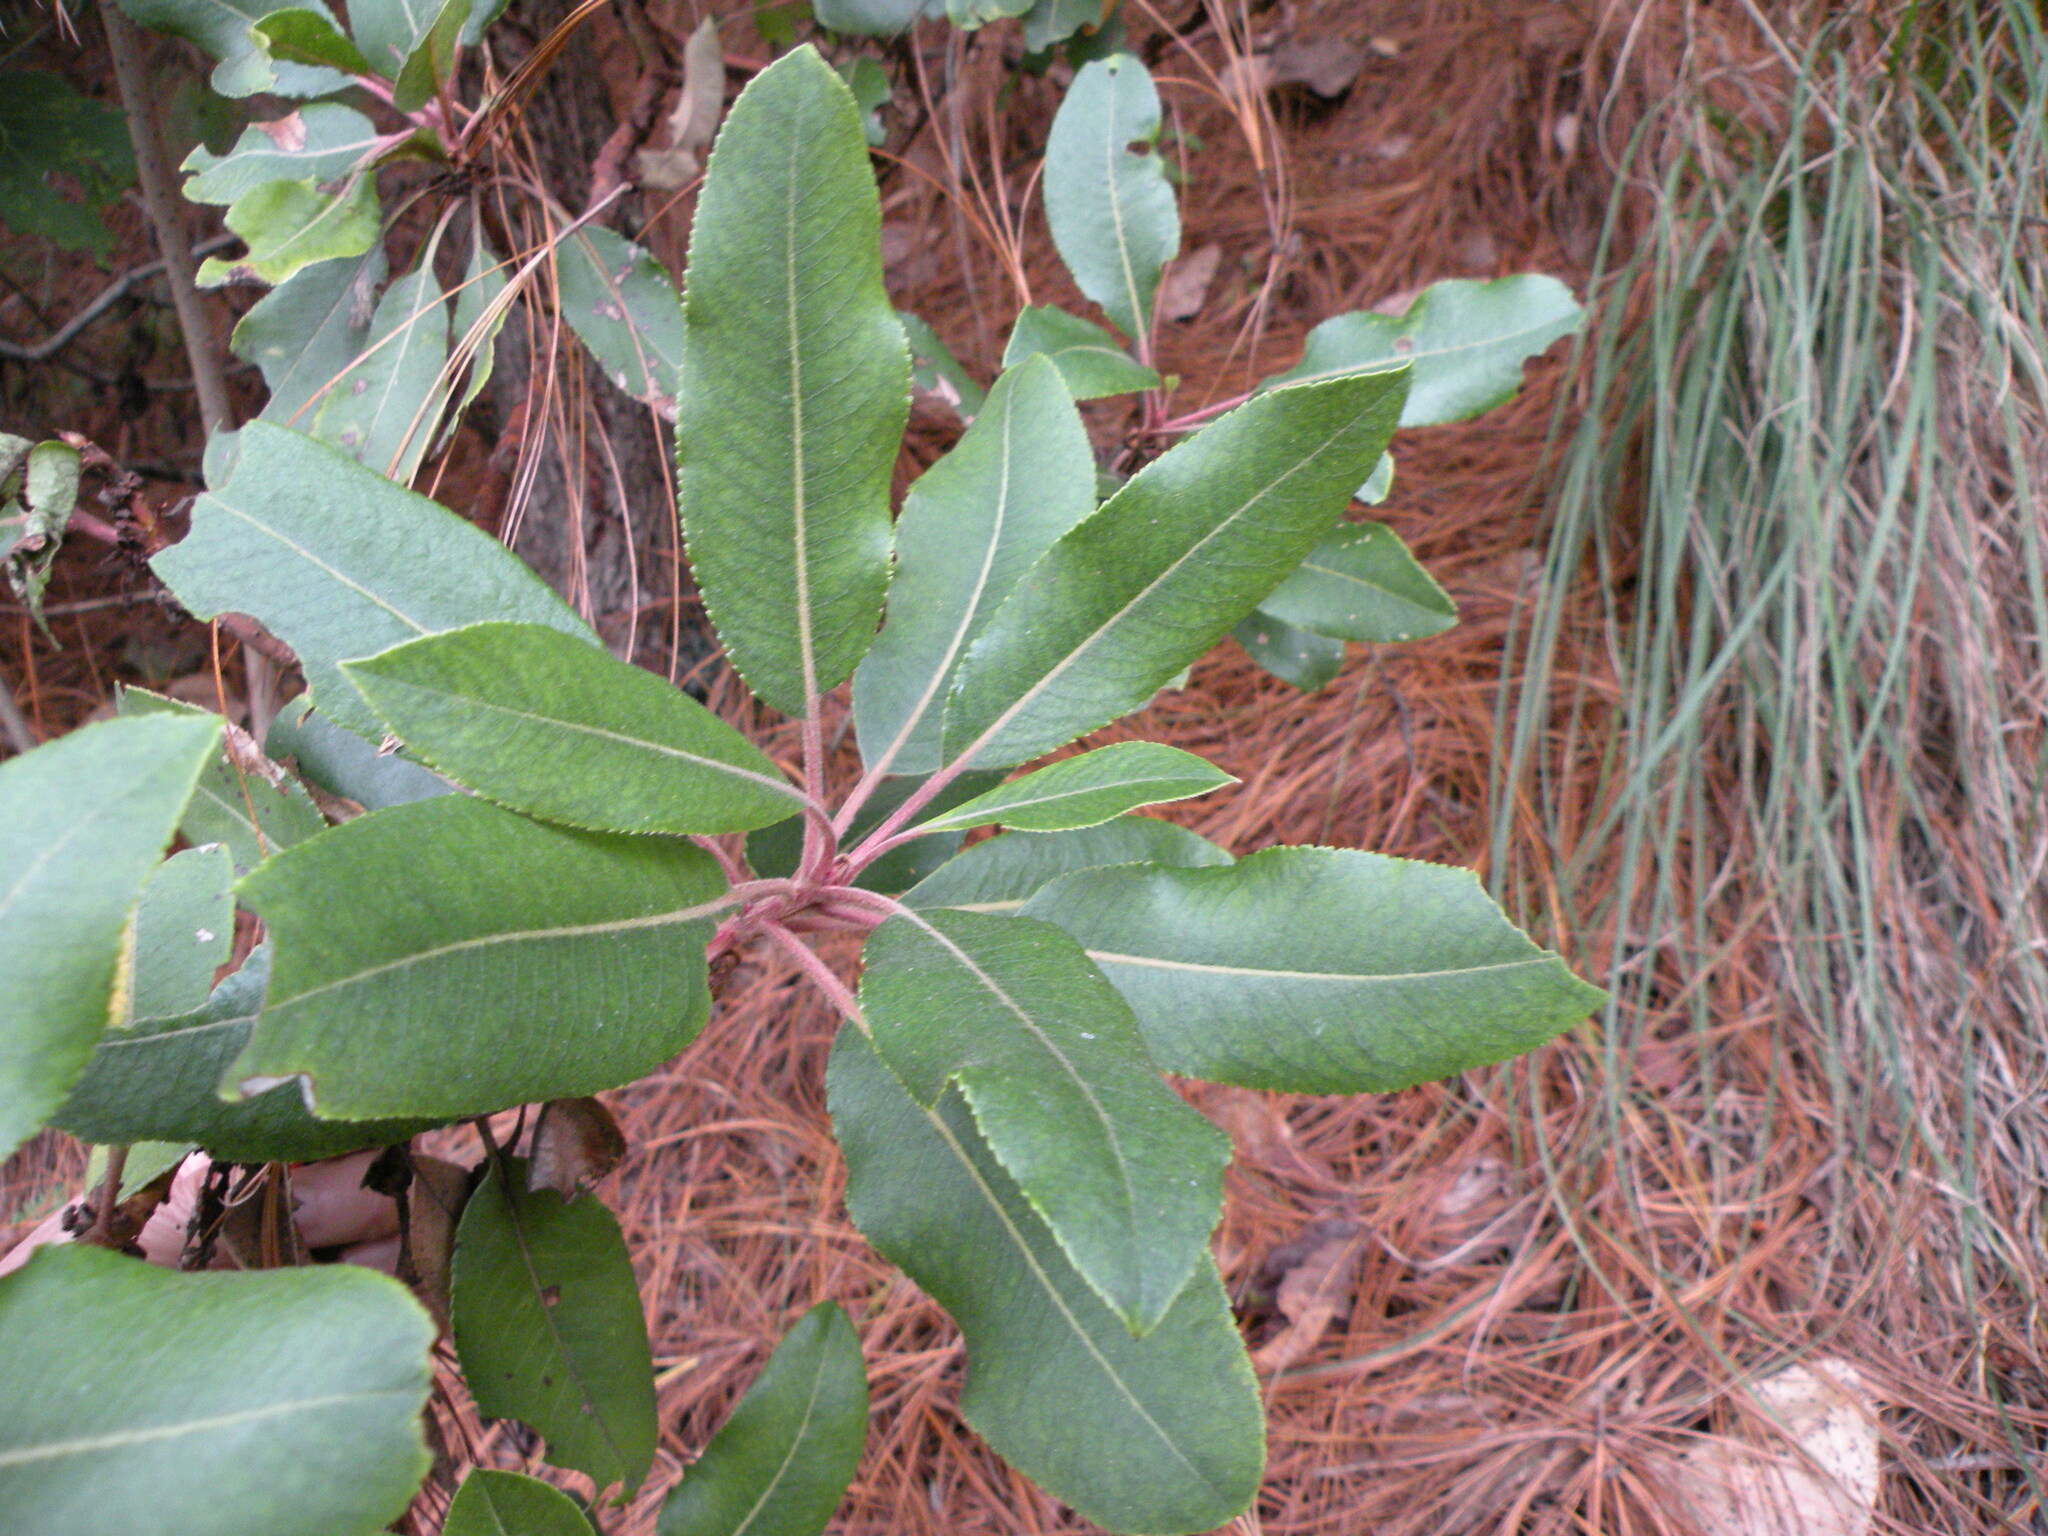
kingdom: Plantae
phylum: Tracheophyta
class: Magnoliopsida
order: Ericales
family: Ericaceae
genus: Arbutus
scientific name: Arbutus xalapensis
